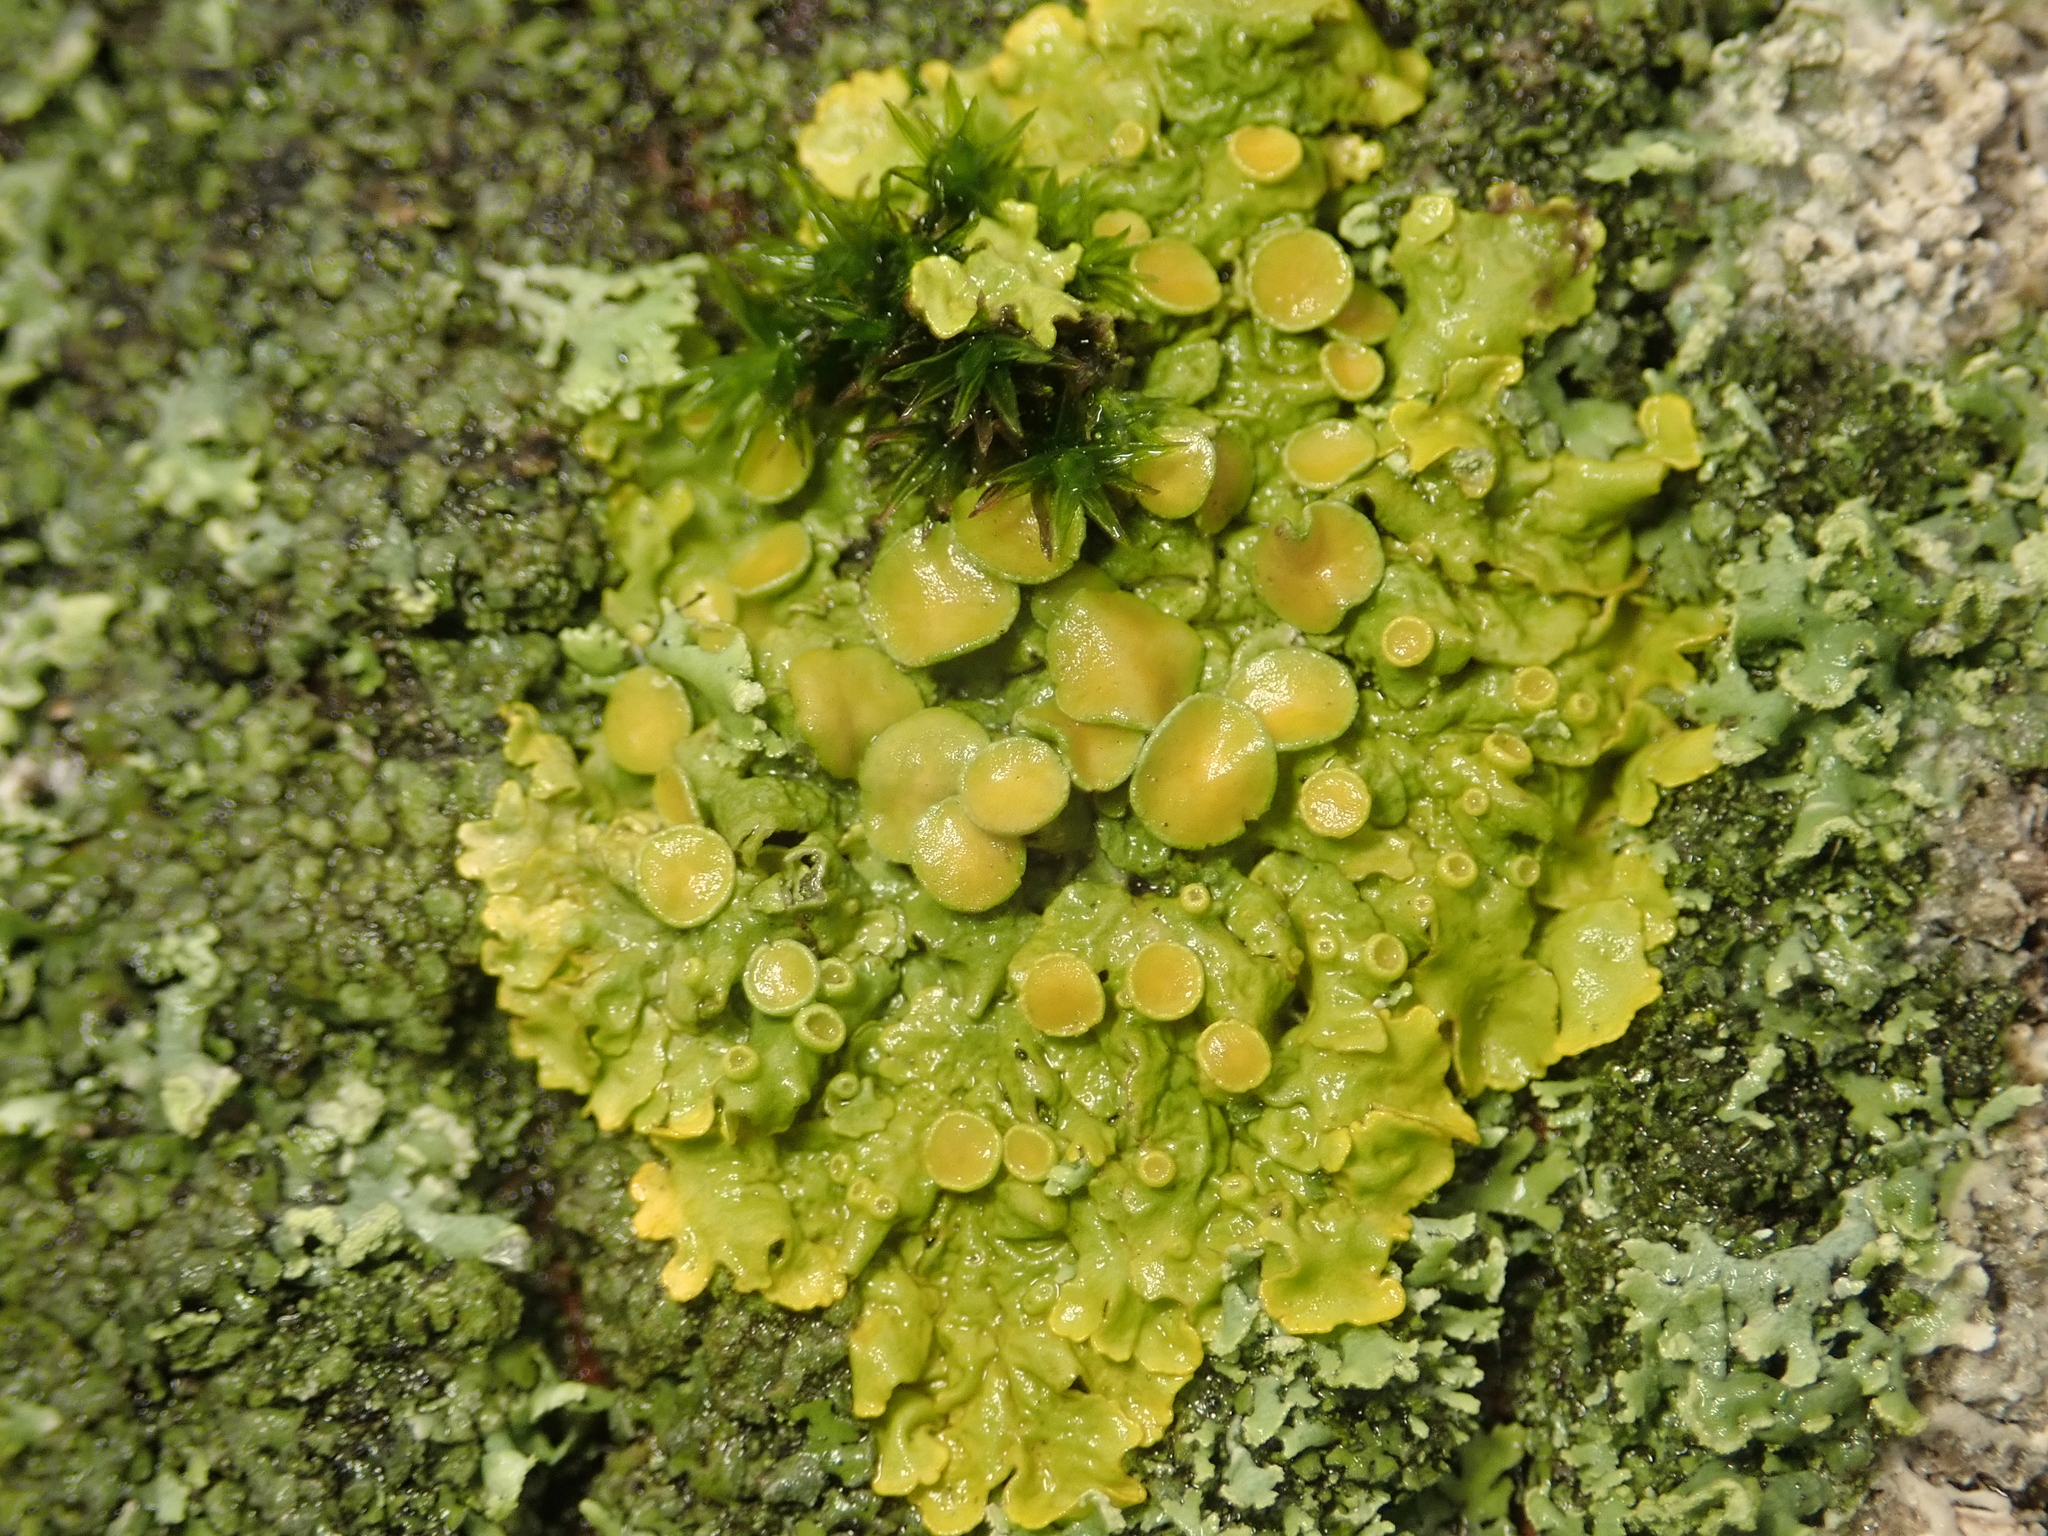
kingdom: Fungi
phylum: Ascomycota
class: Lecanoromycetes
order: Teloschistales
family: Teloschistaceae
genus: Xanthoria
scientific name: Xanthoria parietina
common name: Common orange lichen
